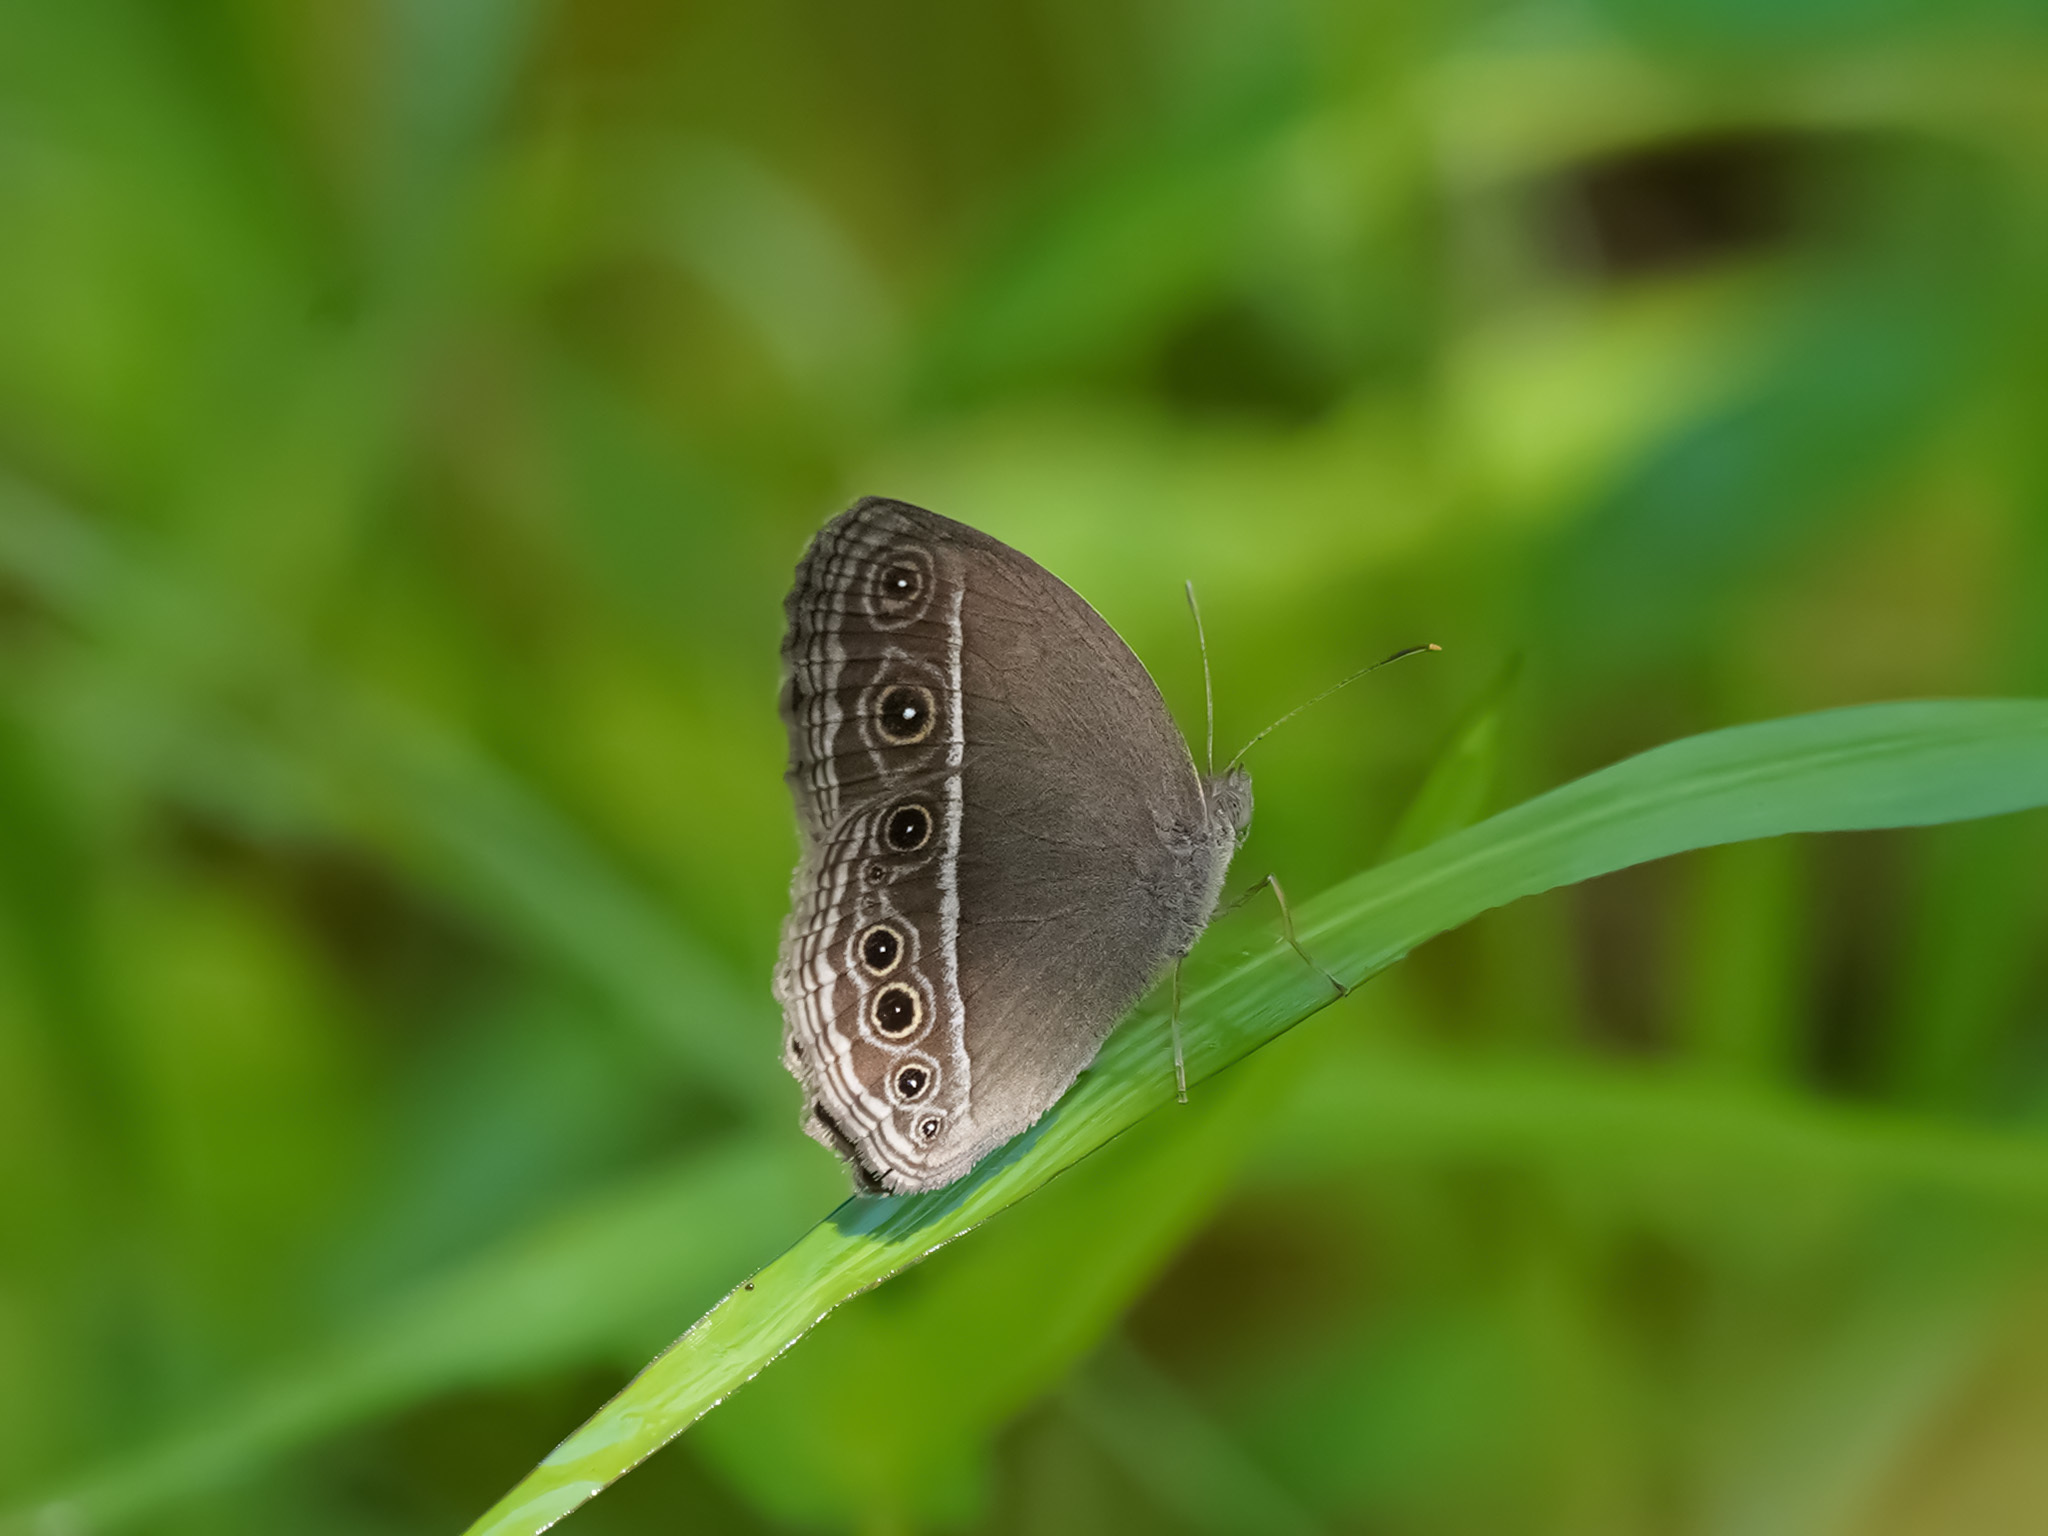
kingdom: Animalia
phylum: Arthropoda
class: Insecta
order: Lepidoptera
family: Nymphalidae
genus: Mycalesis
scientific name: Mycalesis mineus
